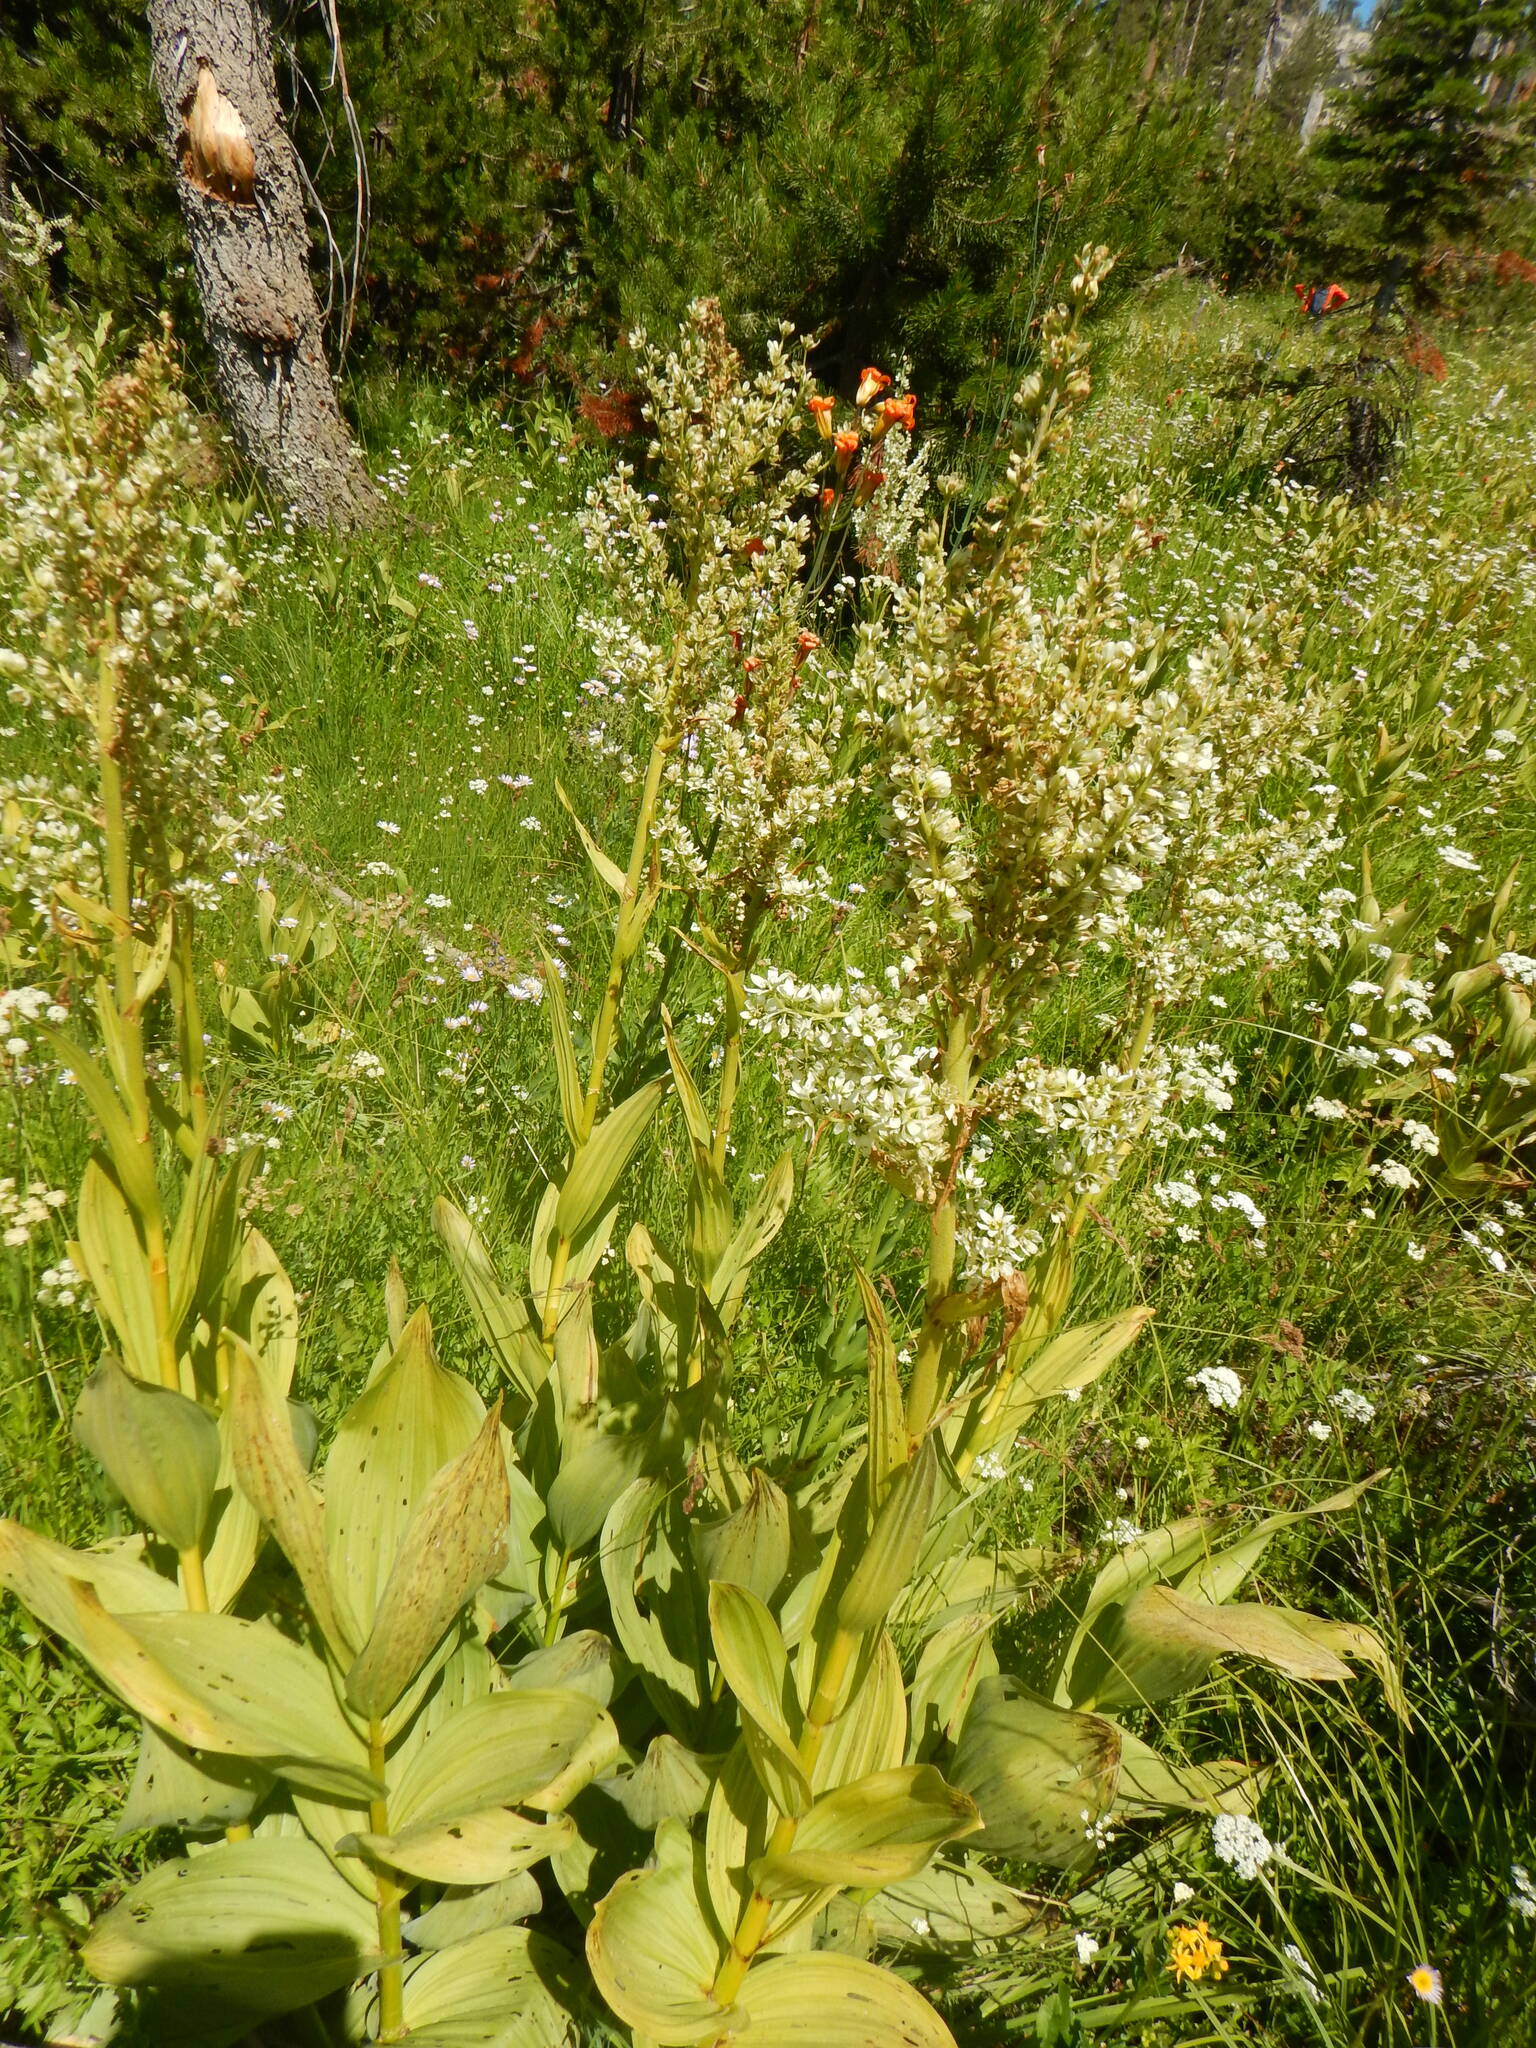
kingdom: Plantae
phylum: Tracheophyta
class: Liliopsida
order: Liliales
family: Melanthiaceae
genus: Veratrum
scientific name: Veratrum californicum
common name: California veratrum
